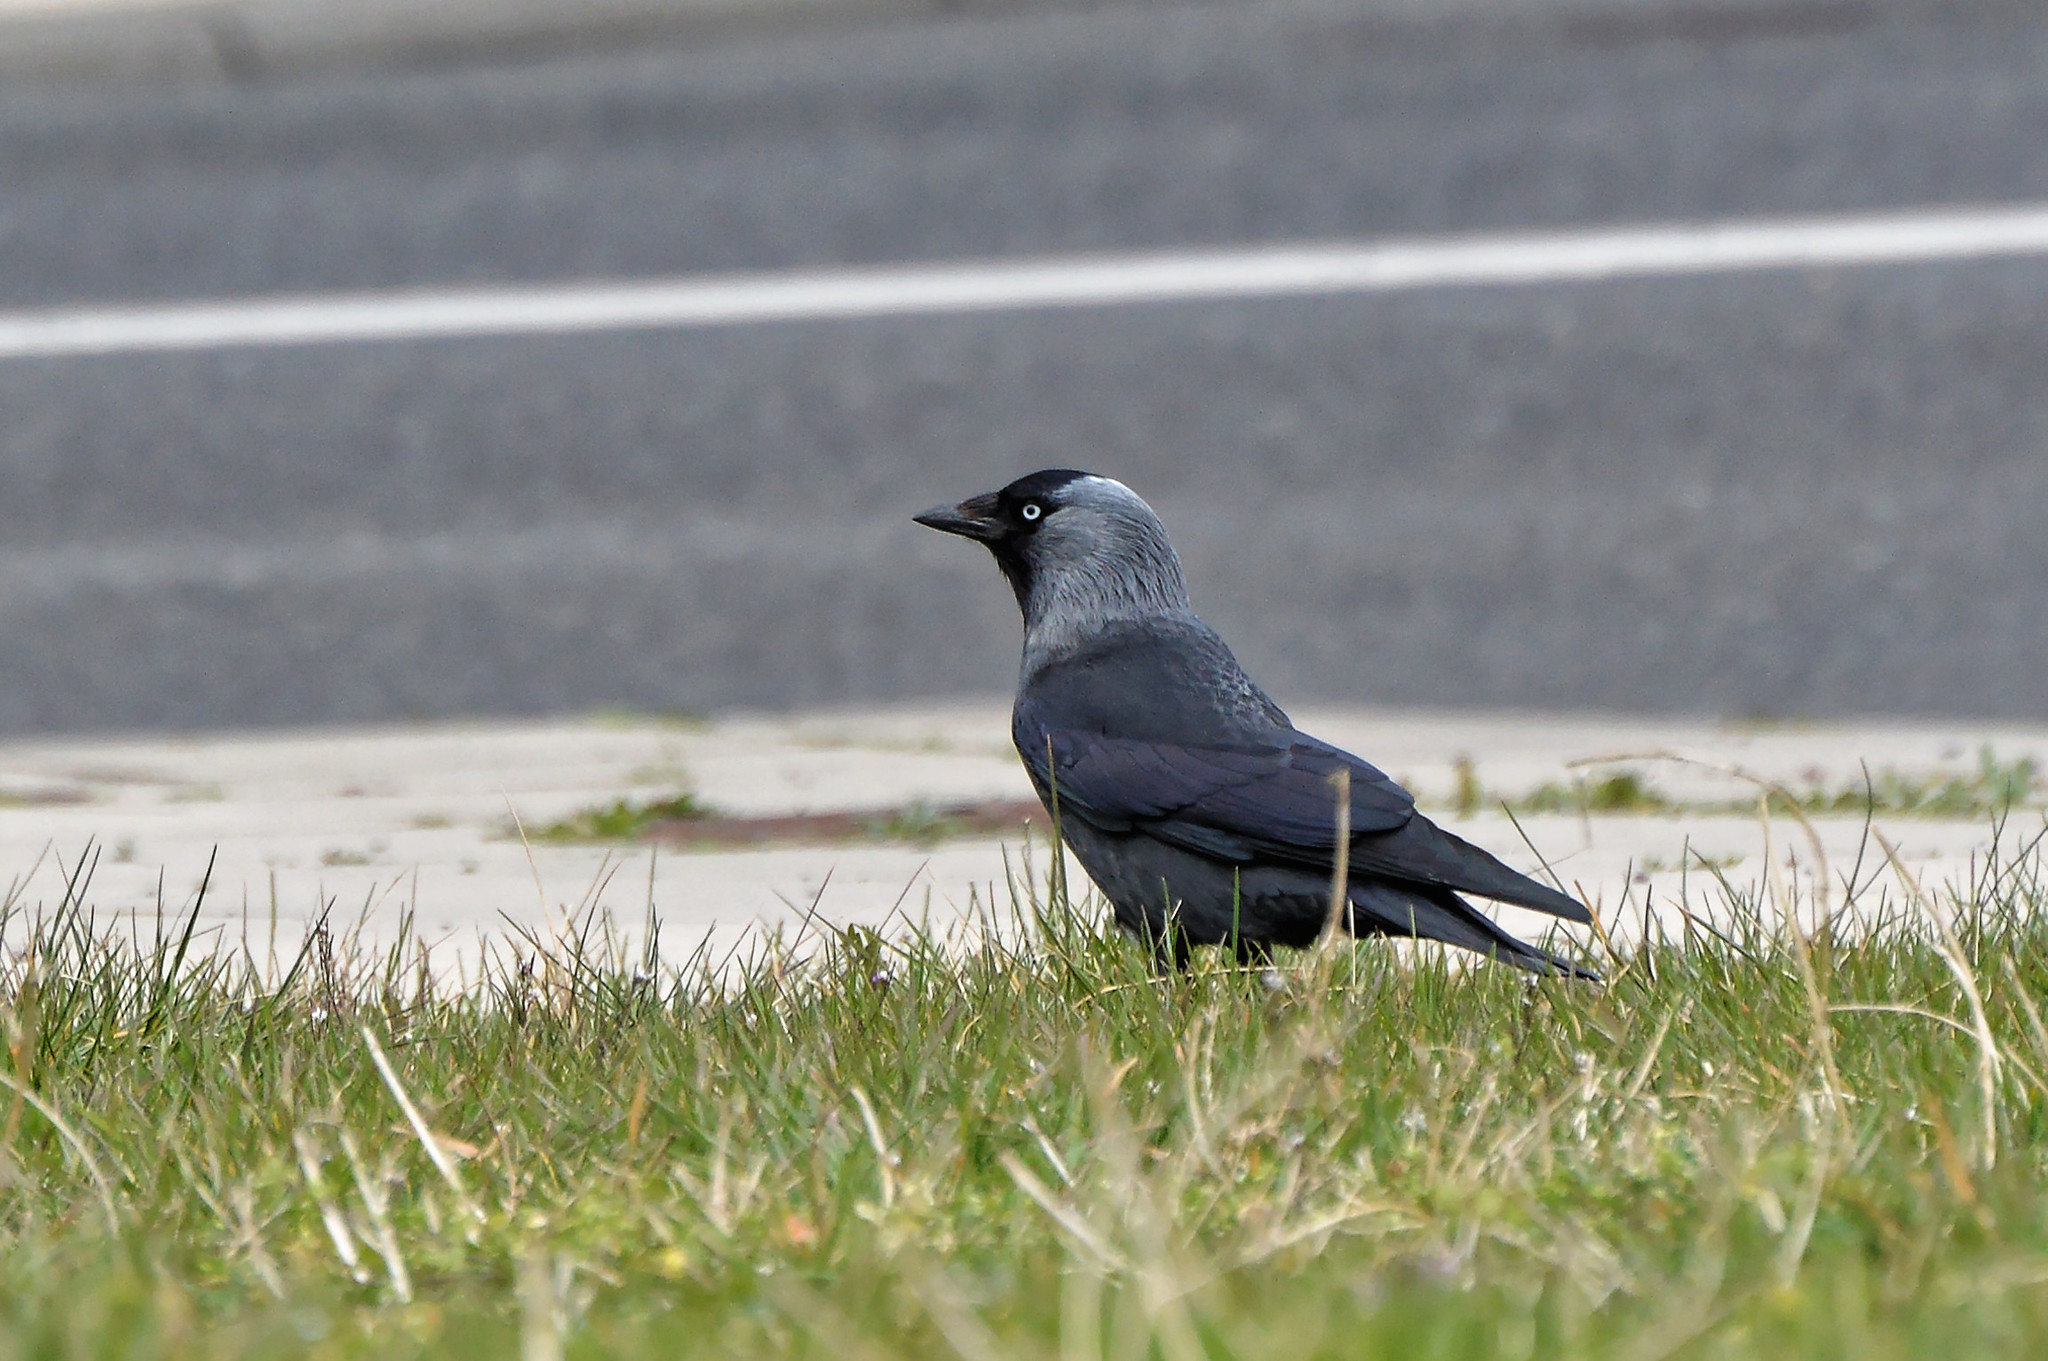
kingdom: Animalia
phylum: Chordata
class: Aves
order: Passeriformes
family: Corvidae
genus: Coloeus
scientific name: Coloeus monedula
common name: Western jackdaw
